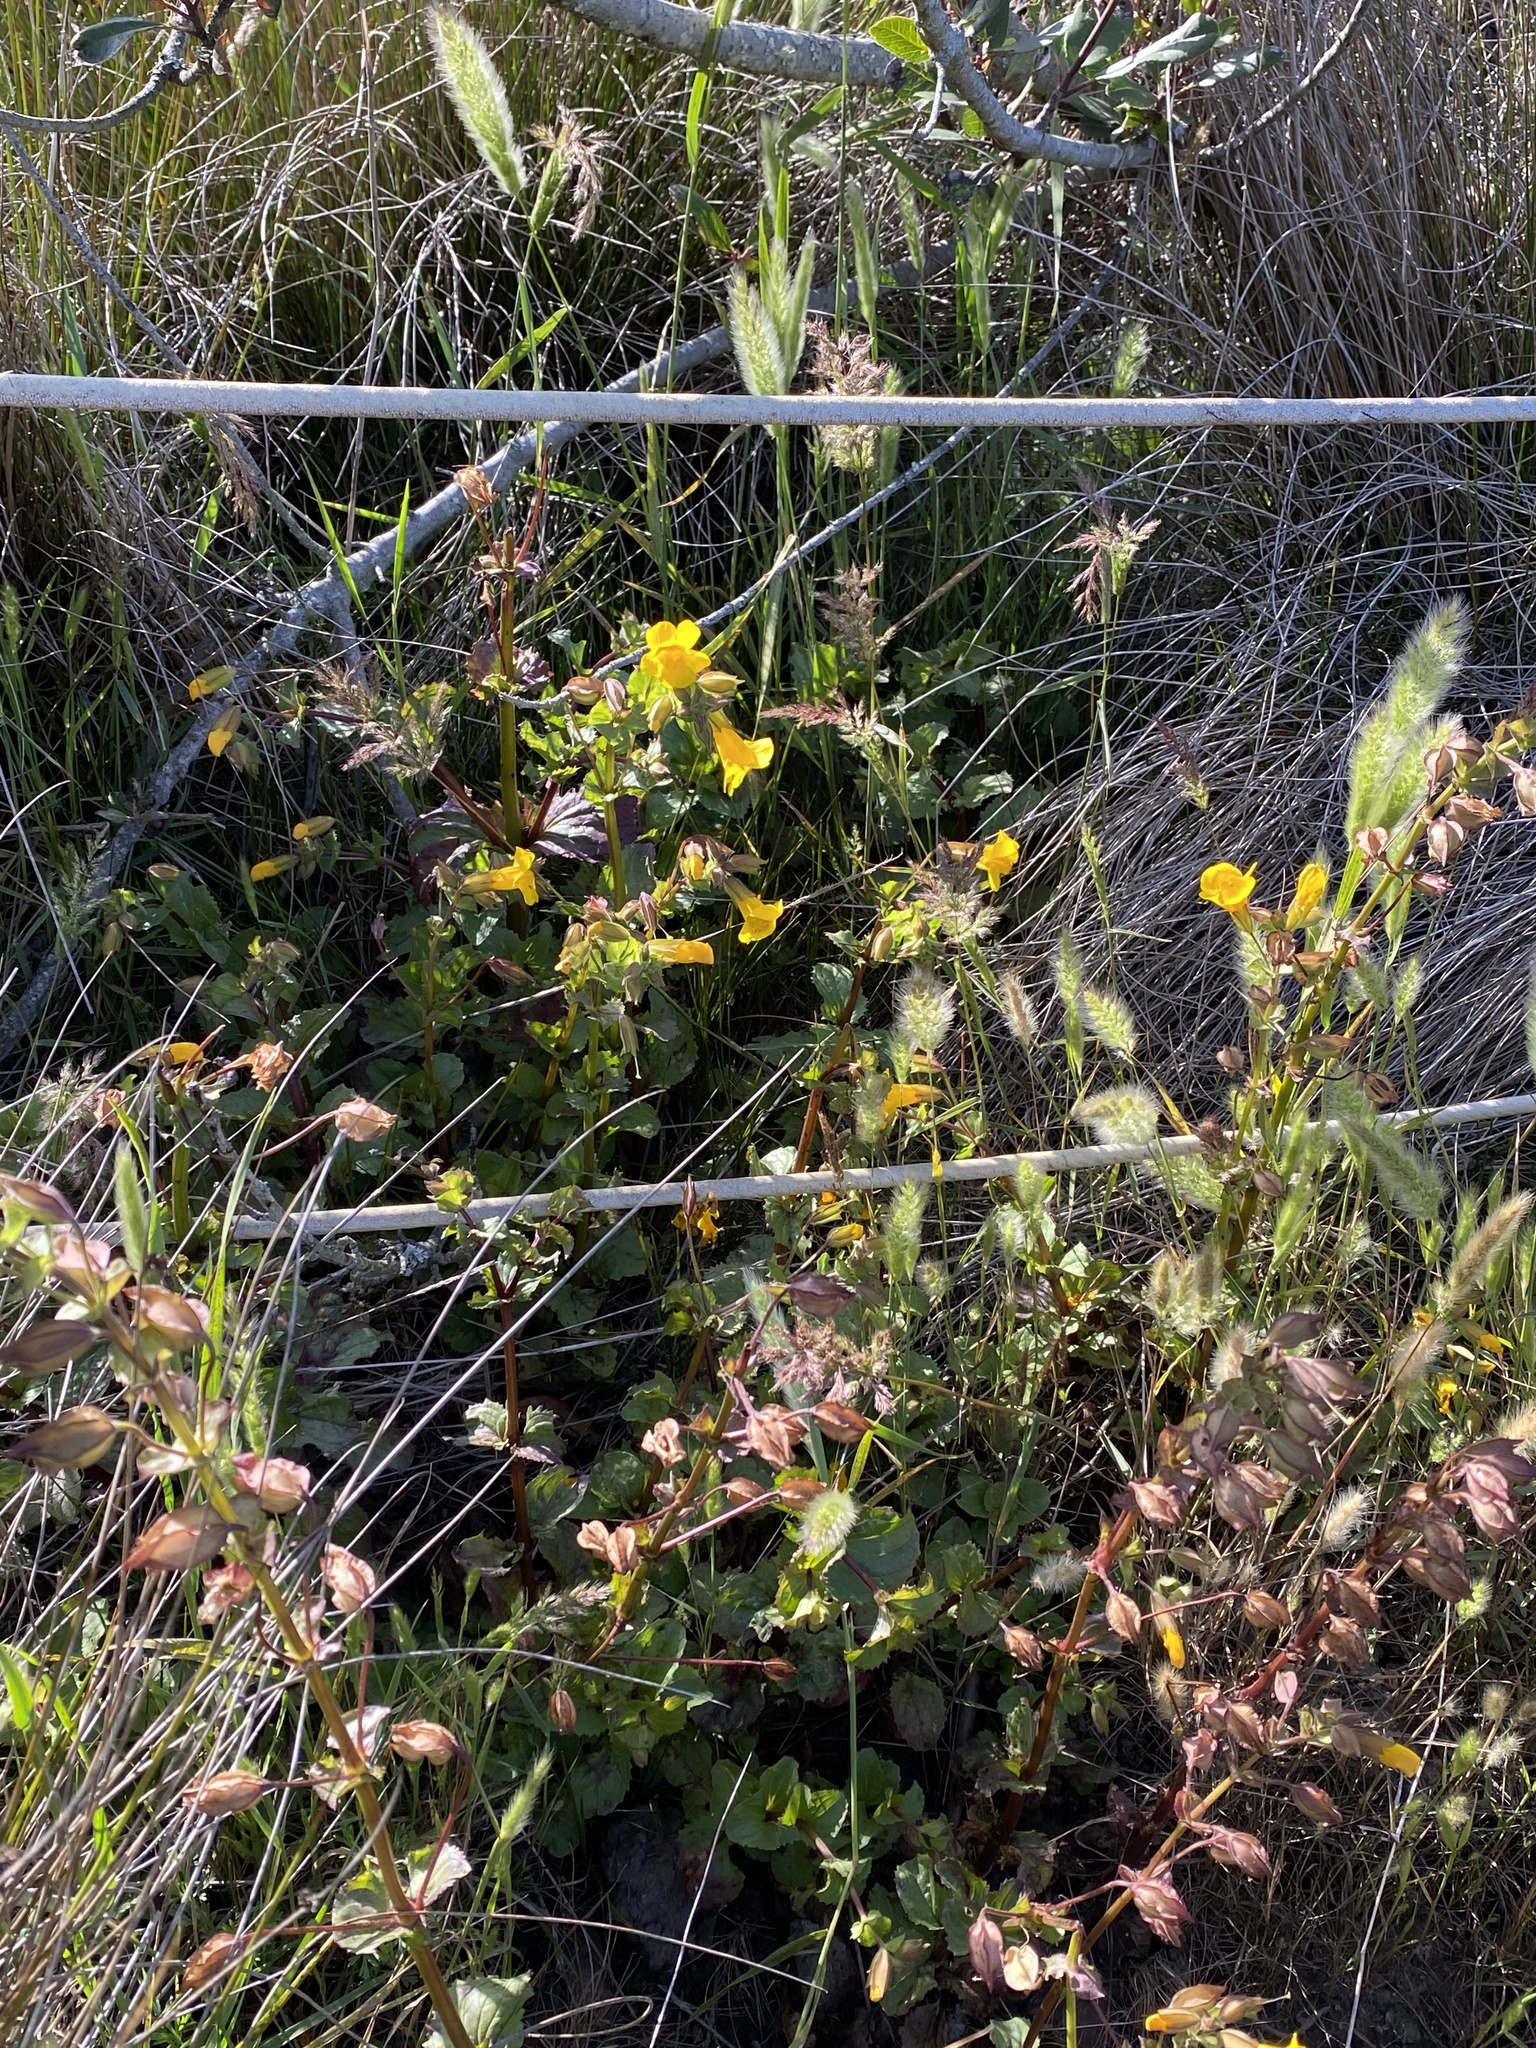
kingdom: Plantae
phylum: Tracheophyta
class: Magnoliopsida
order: Lamiales
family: Phrymaceae
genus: Erythranthe
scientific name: Erythranthe guttata
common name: Monkeyflower
